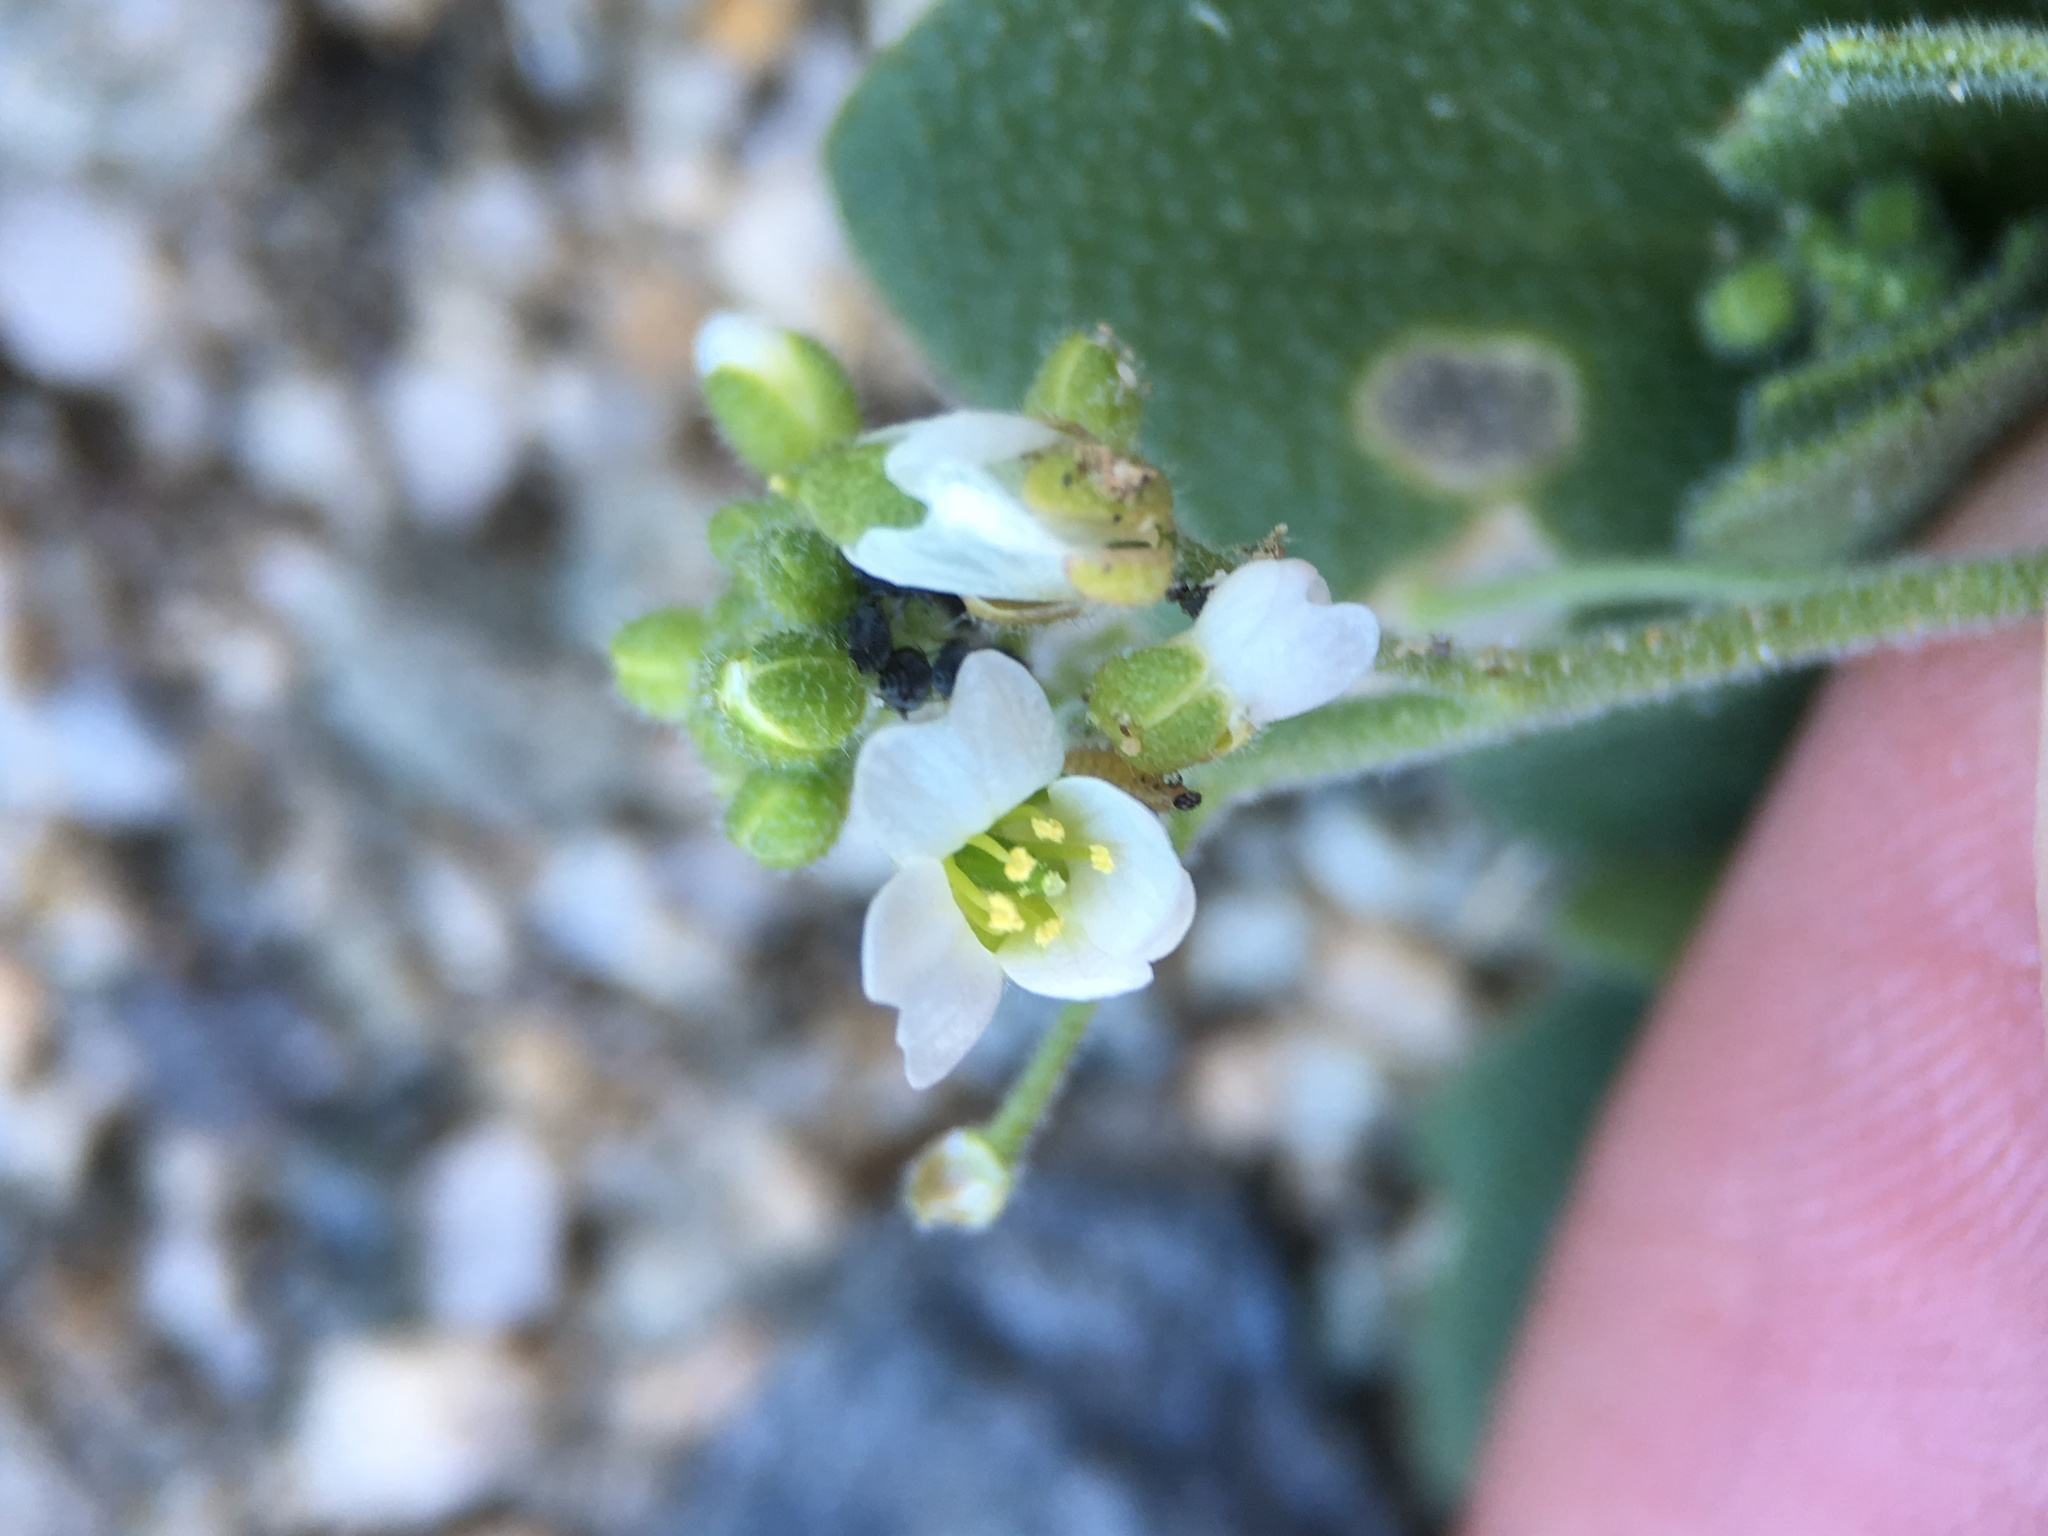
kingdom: Plantae
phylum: Tracheophyta
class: Magnoliopsida
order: Brassicales
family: Brassicaceae
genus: Tomostima
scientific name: Tomostima cuneifolia
